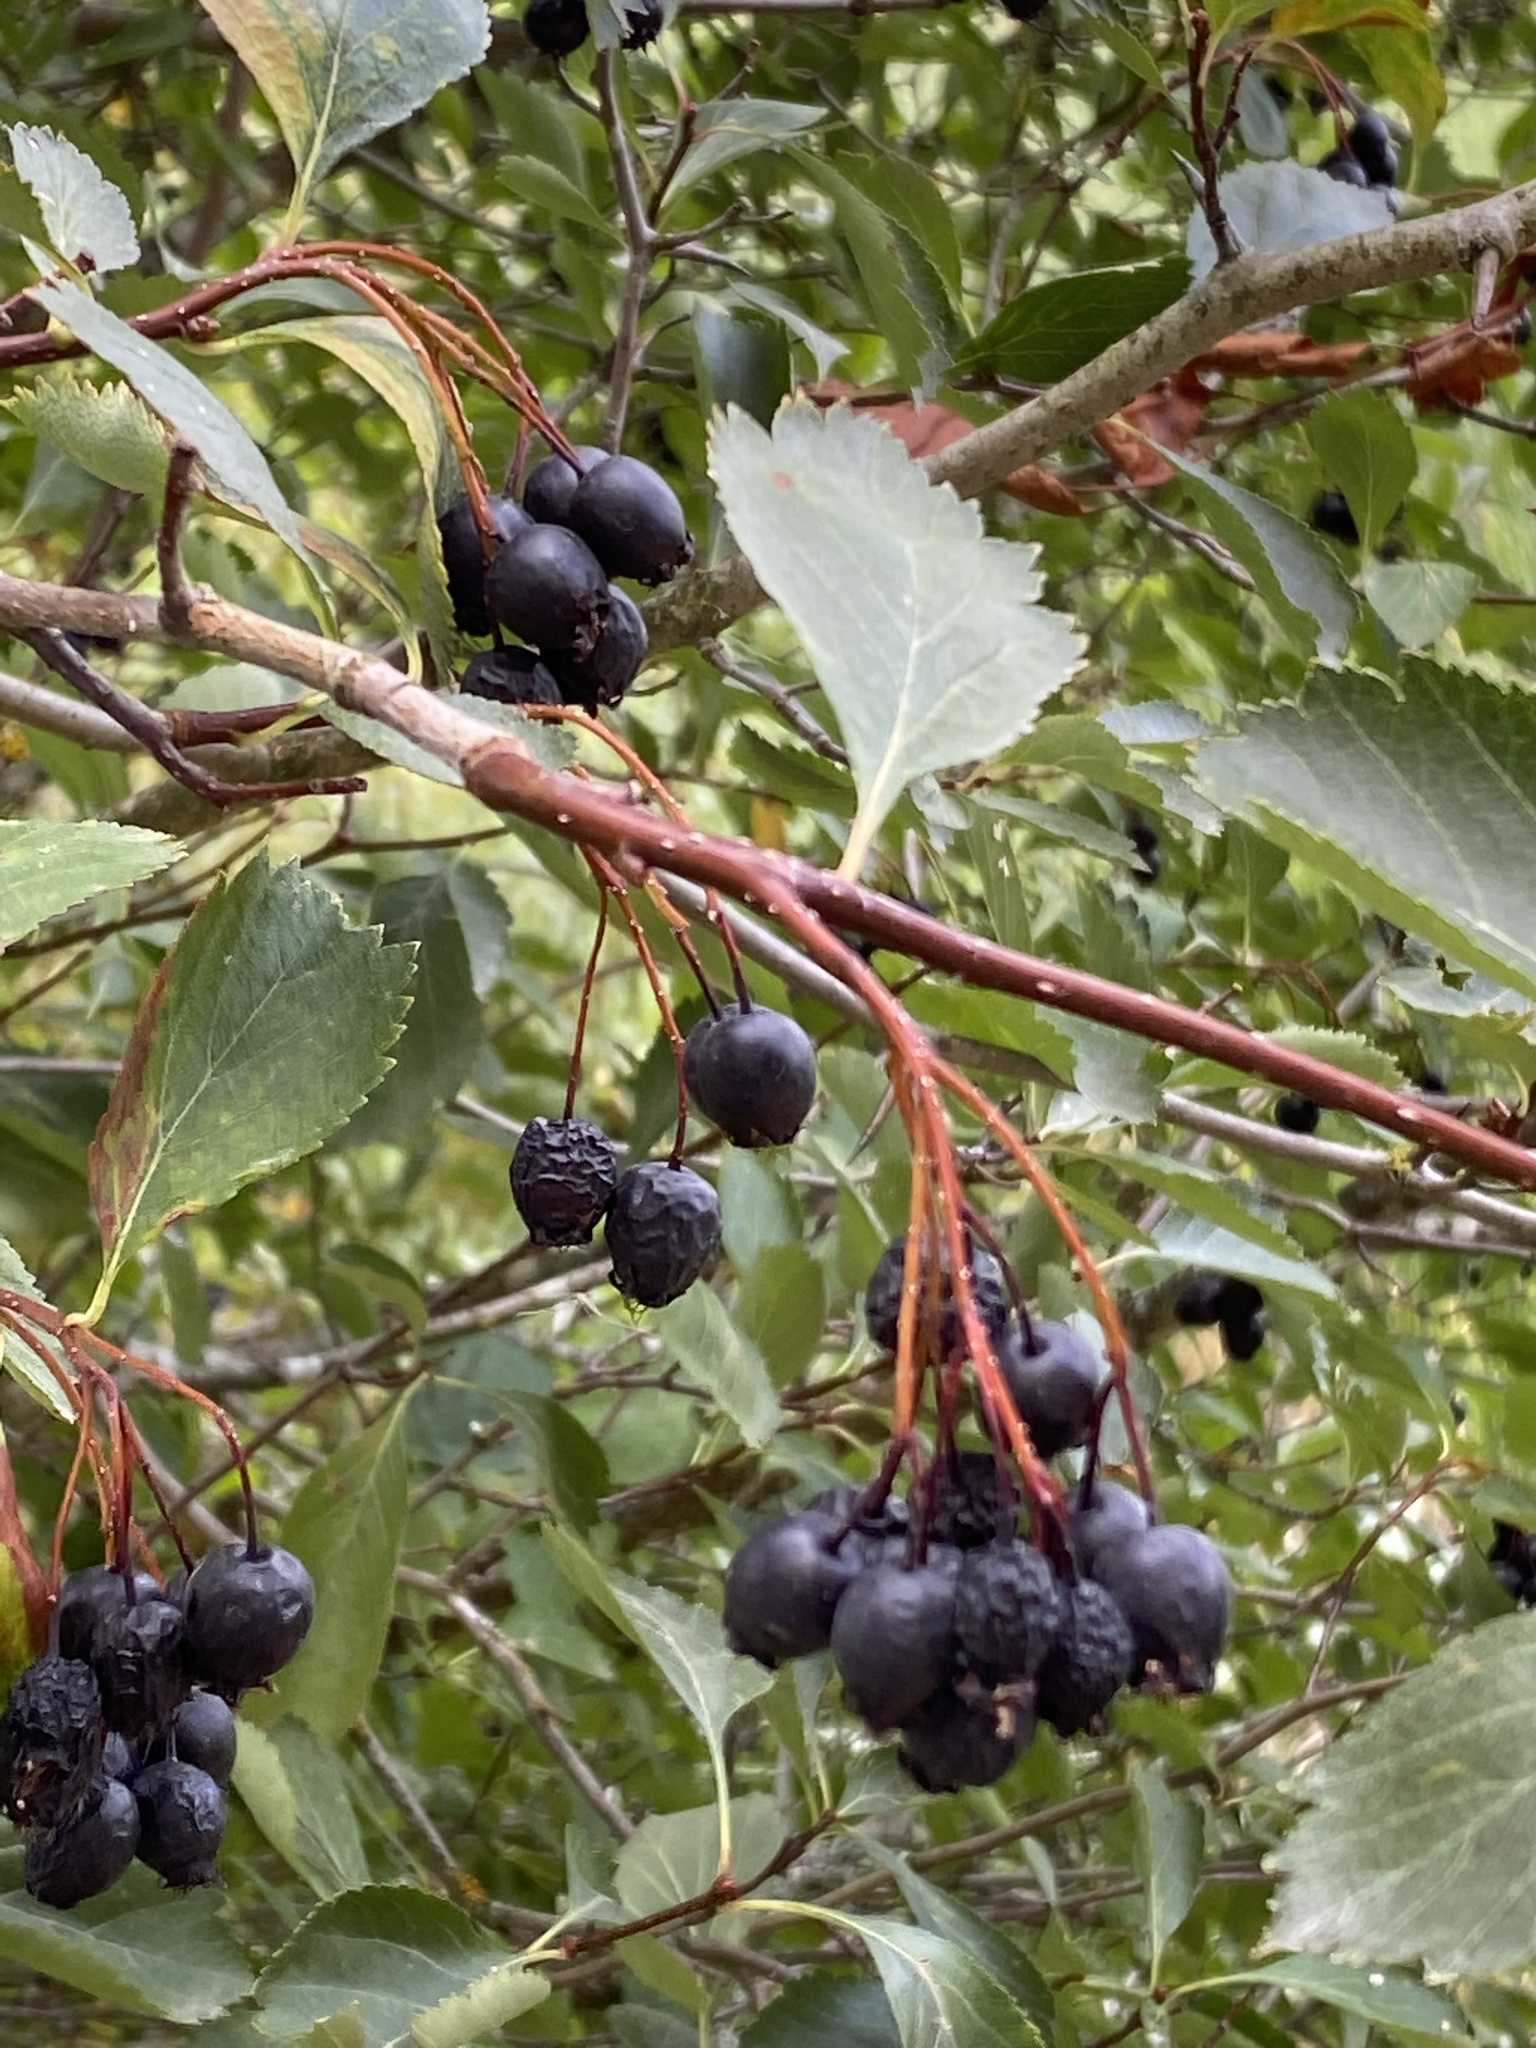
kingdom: Plantae
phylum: Tracheophyta
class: Magnoliopsida
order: Rosales
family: Rosaceae
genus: Crataegus
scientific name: Crataegus douglasii
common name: Black hawthorn
